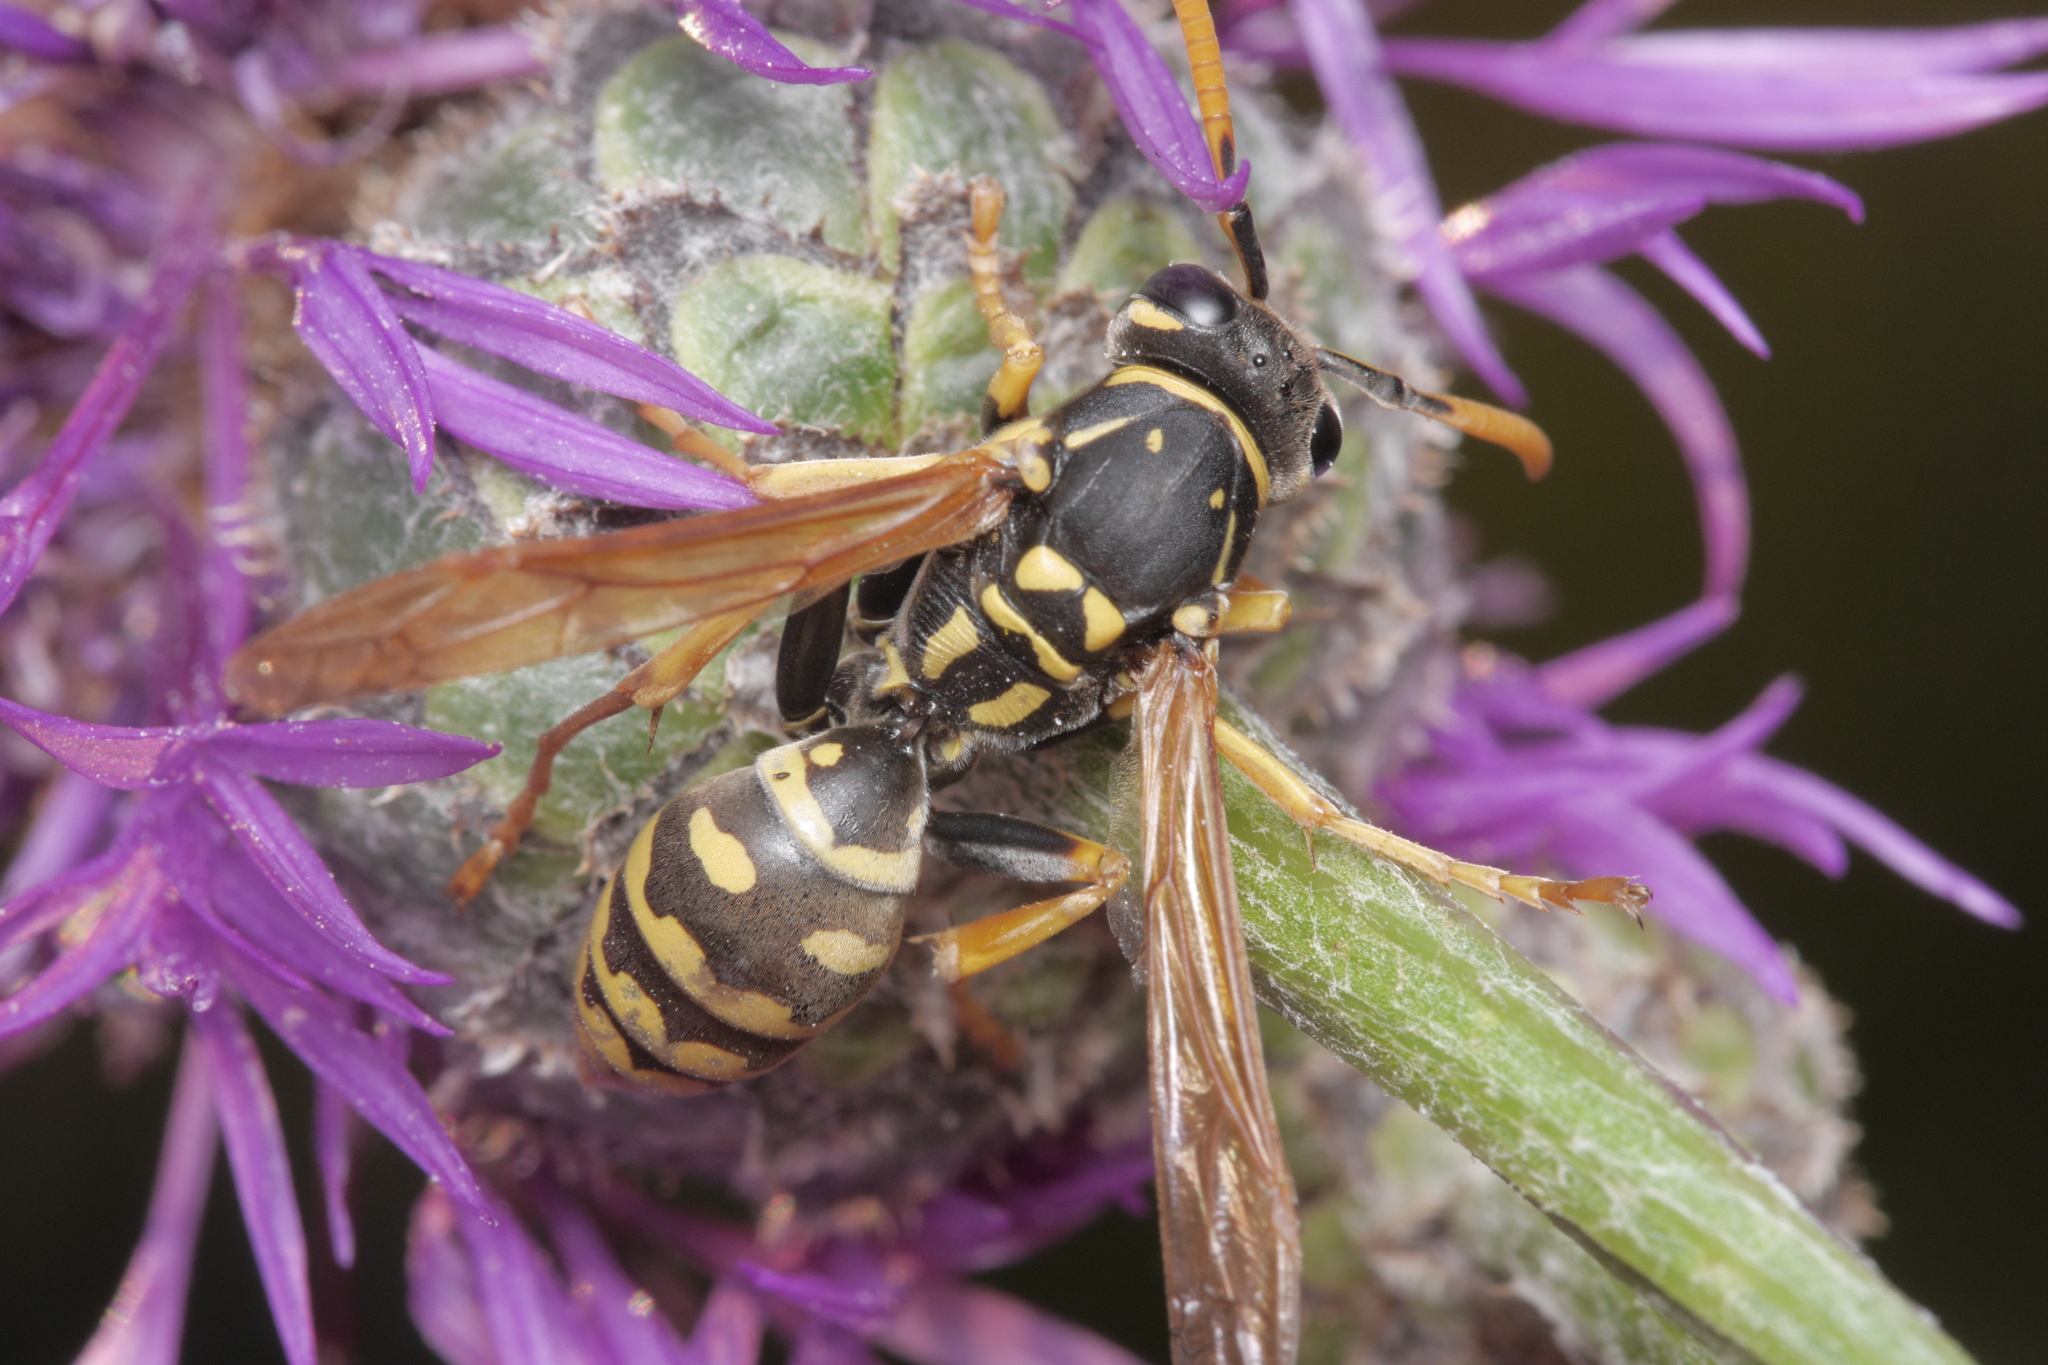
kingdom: Animalia
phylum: Arthropoda
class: Insecta
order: Hymenoptera
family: Eumenidae
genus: Polistes
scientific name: Polistes dominula
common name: Paper wasp
